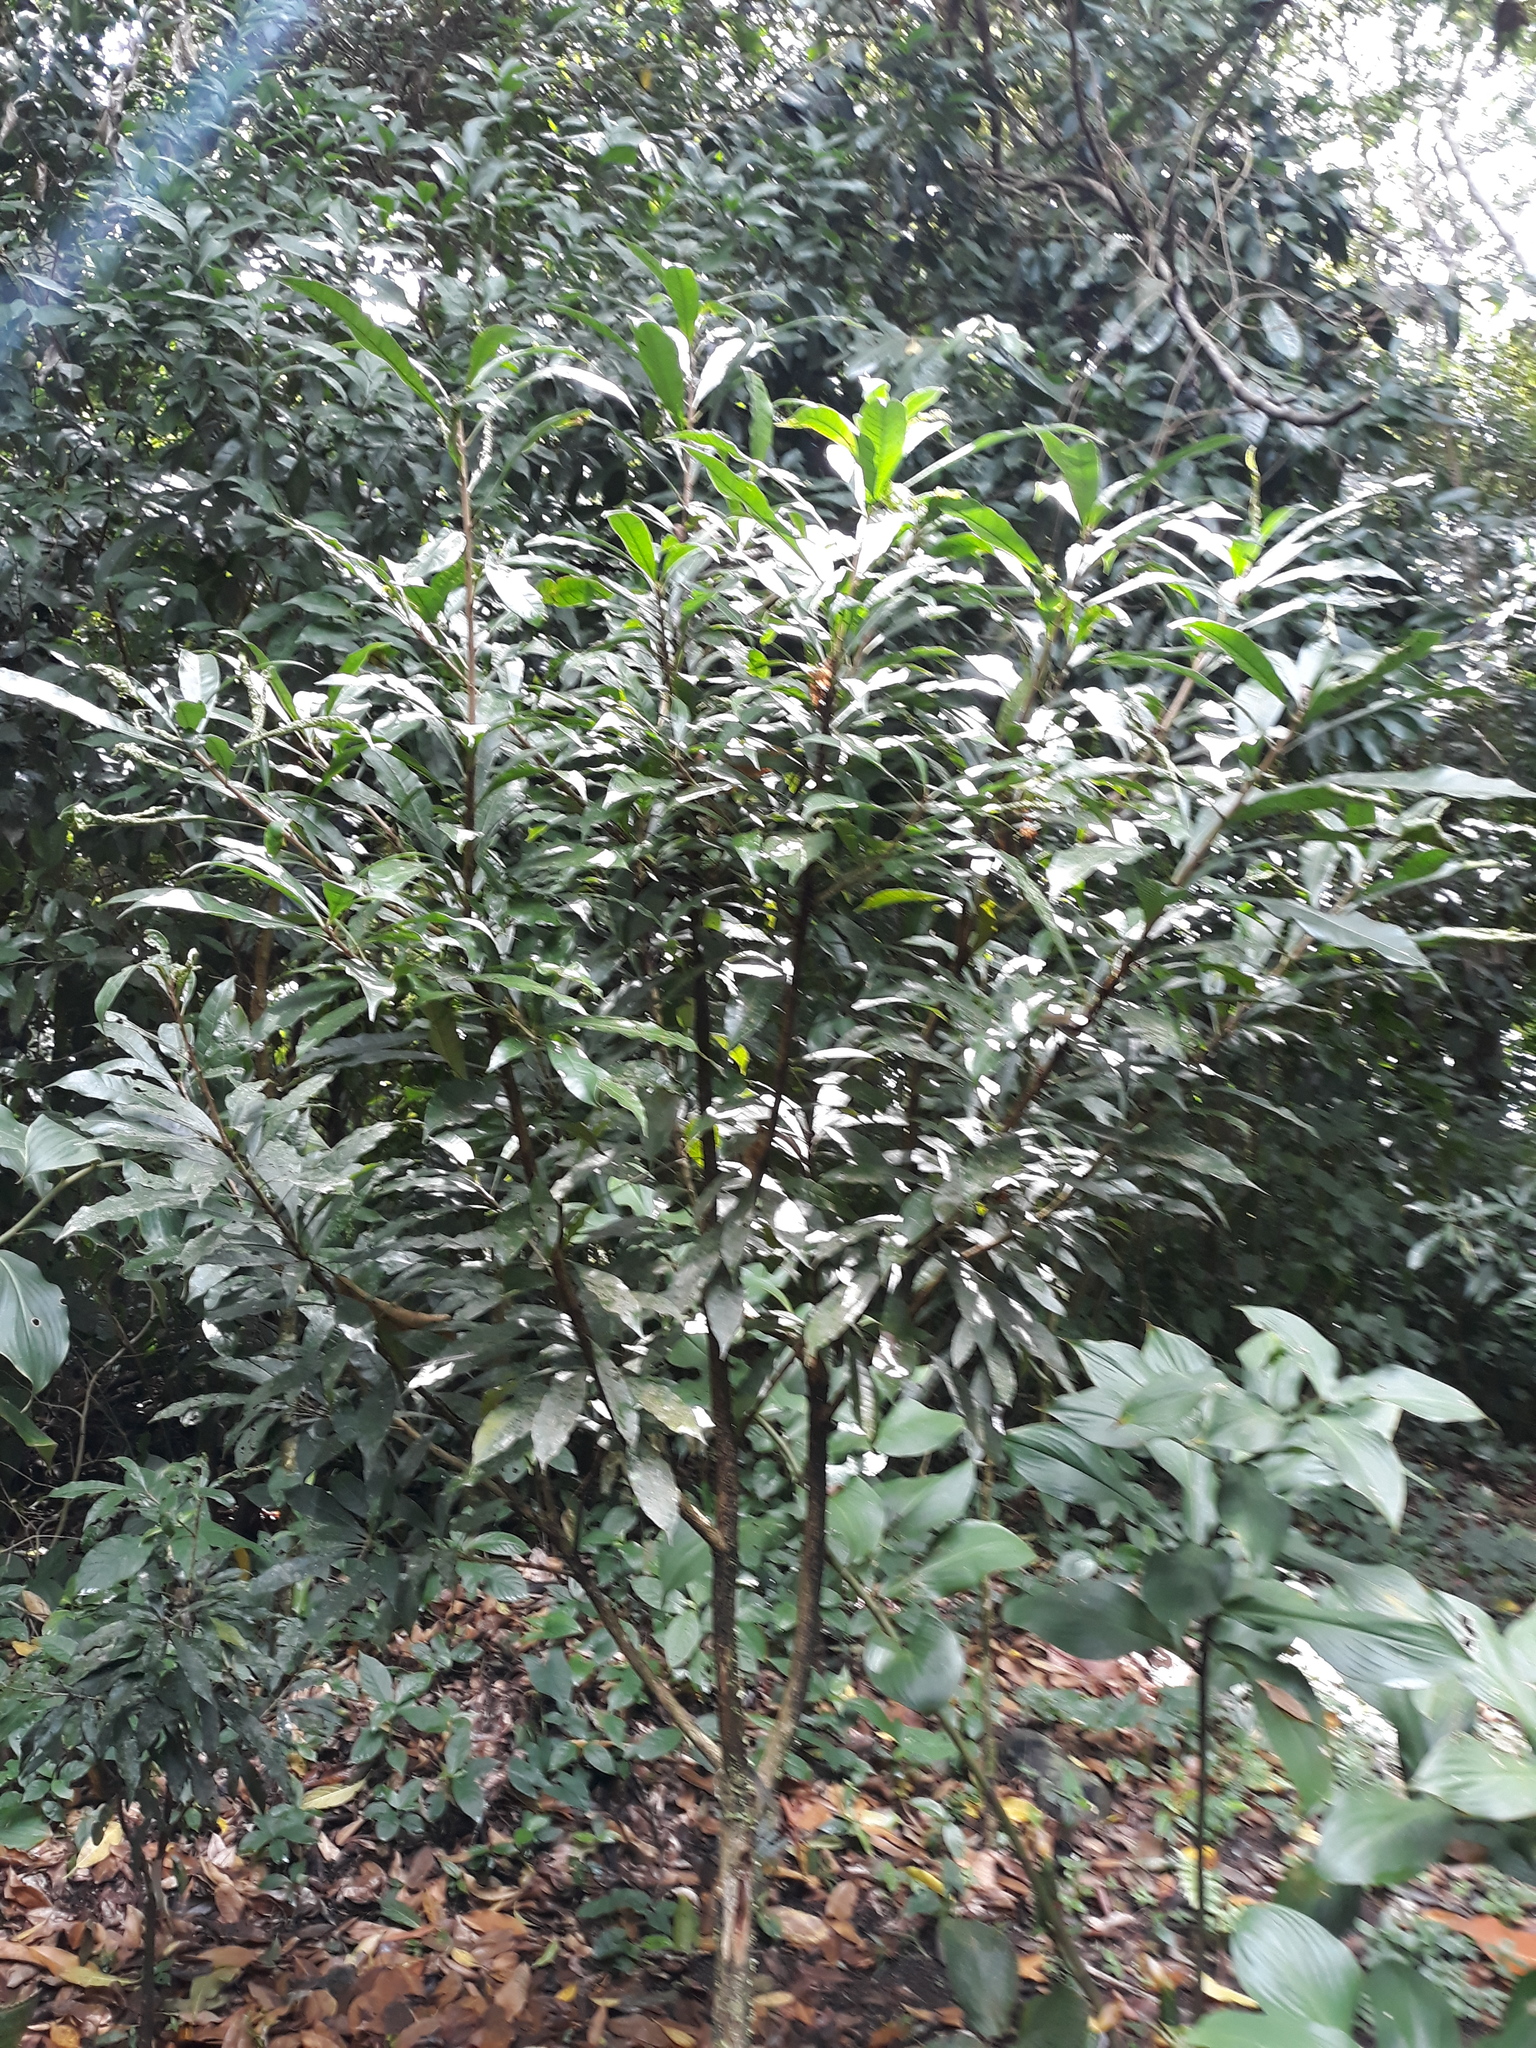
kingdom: Plantae
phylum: Tracheophyta
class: Magnoliopsida
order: Lamiales
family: Bignoniaceae
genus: Amphitecna
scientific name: Amphitecna tuxtlensis
